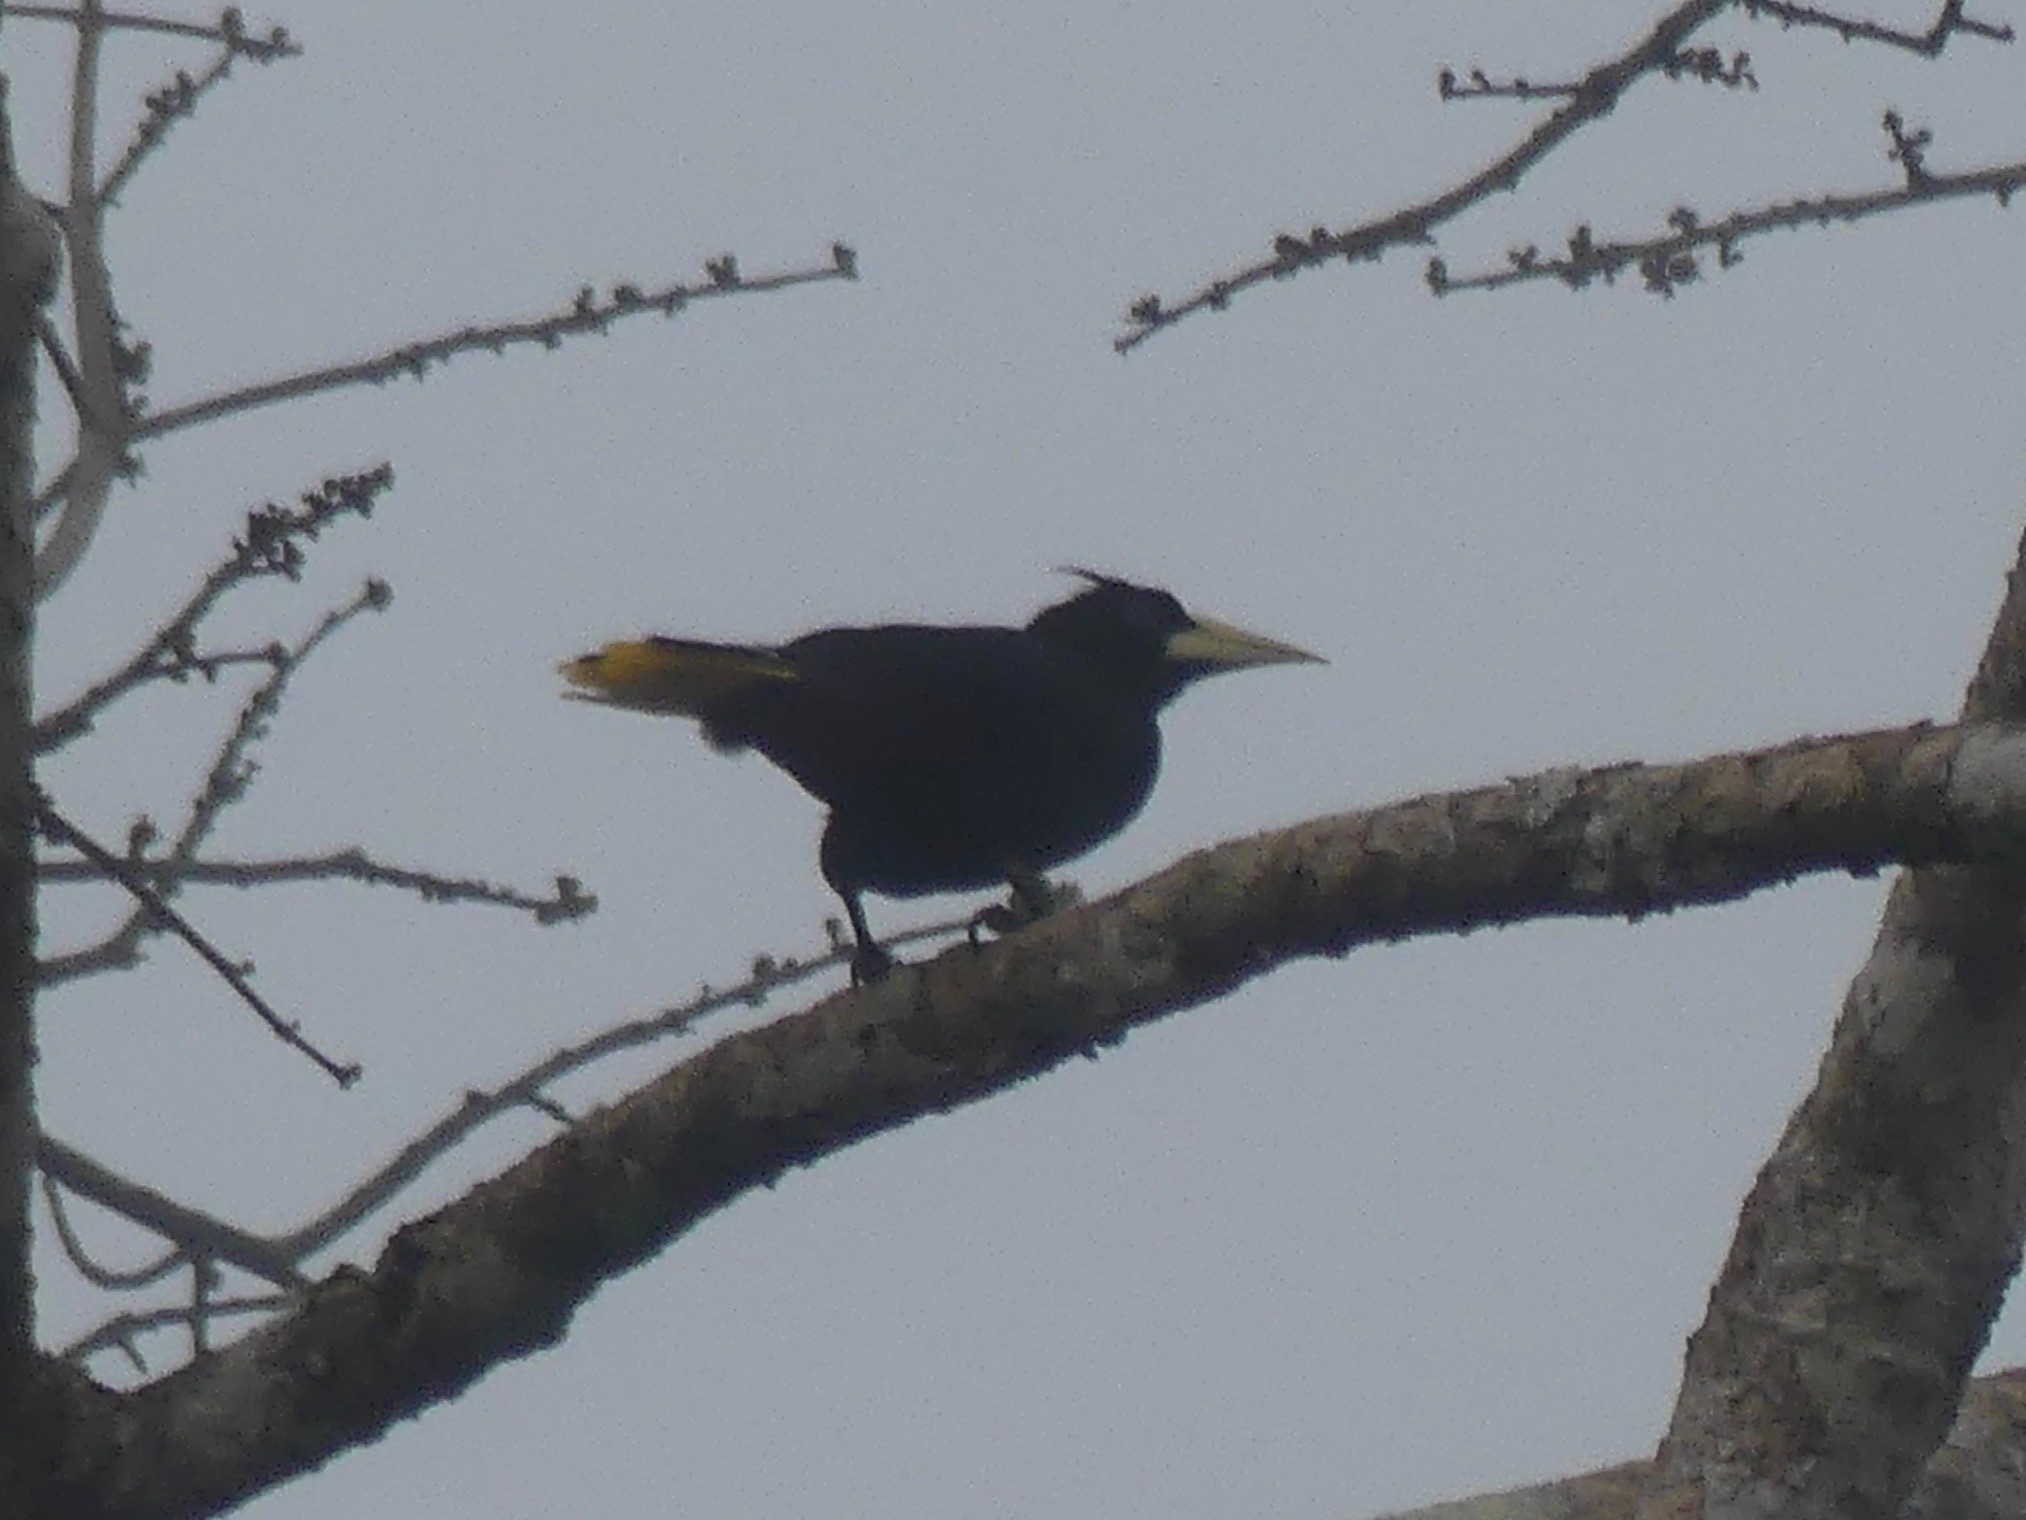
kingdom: Animalia
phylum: Chordata
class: Aves
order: Passeriformes
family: Icteridae
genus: Psarocolius
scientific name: Psarocolius decumanus
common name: Crested oropendola
